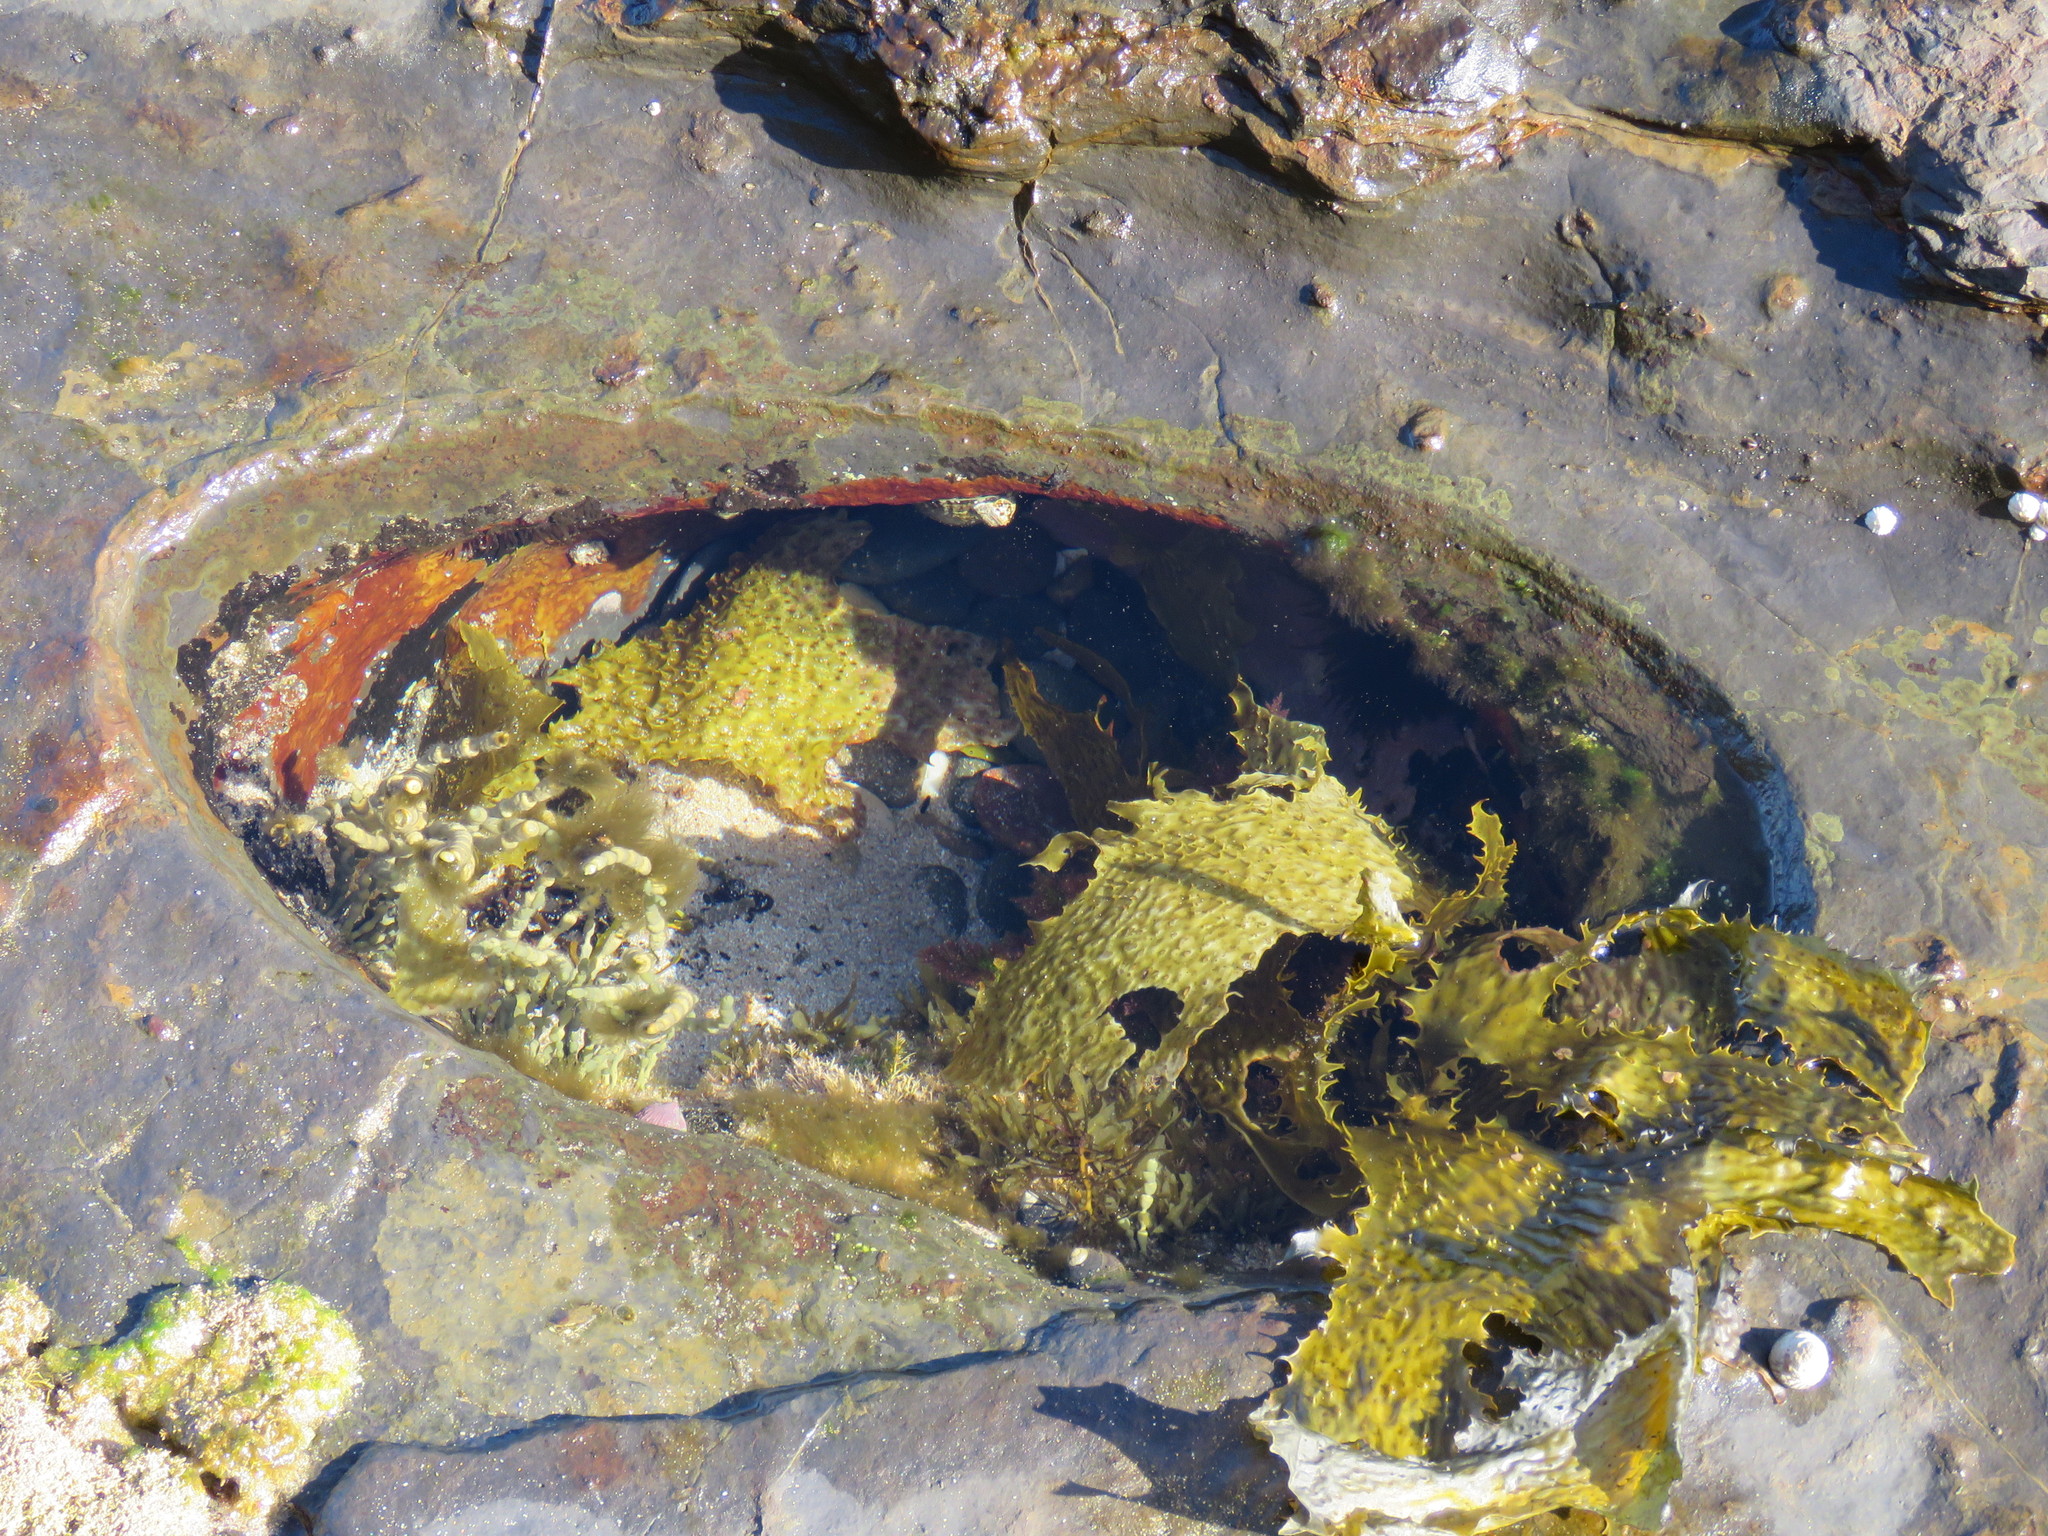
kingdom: Chromista
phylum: Ochrophyta
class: Phaeophyceae
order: Laminariales
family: Lessoniaceae
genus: Ecklonia
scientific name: Ecklonia radiata
